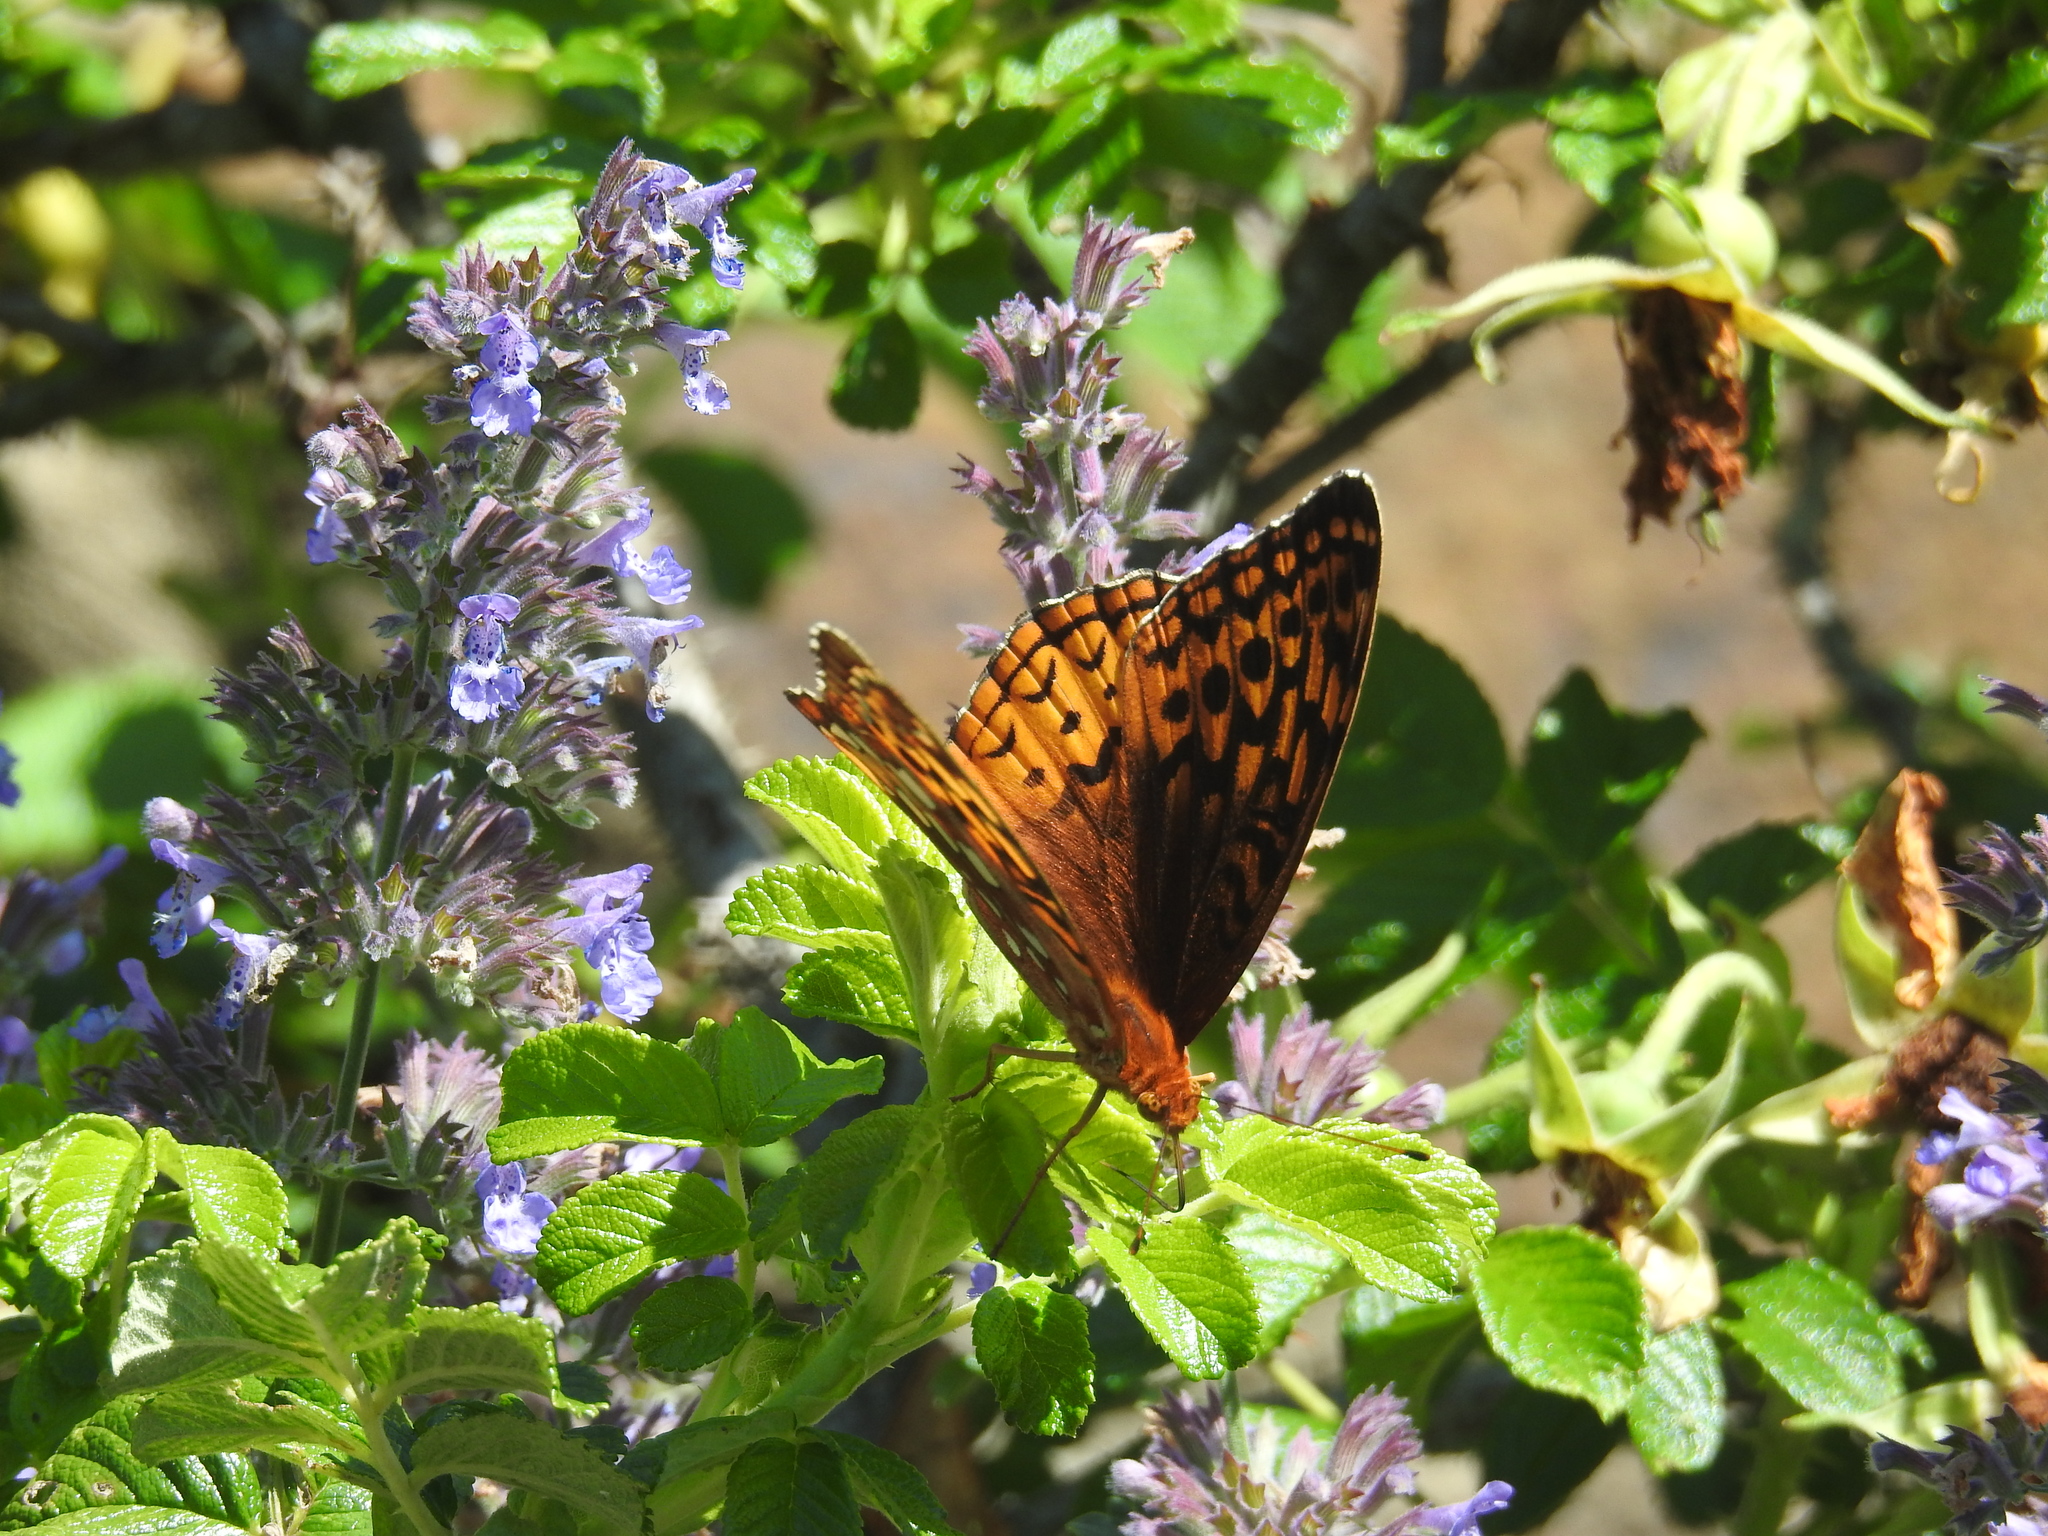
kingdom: Animalia
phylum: Arthropoda
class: Insecta
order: Lepidoptera
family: Nymphalidae
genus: Speyeria
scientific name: Speyeria cybele
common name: Great spangled fritillary
